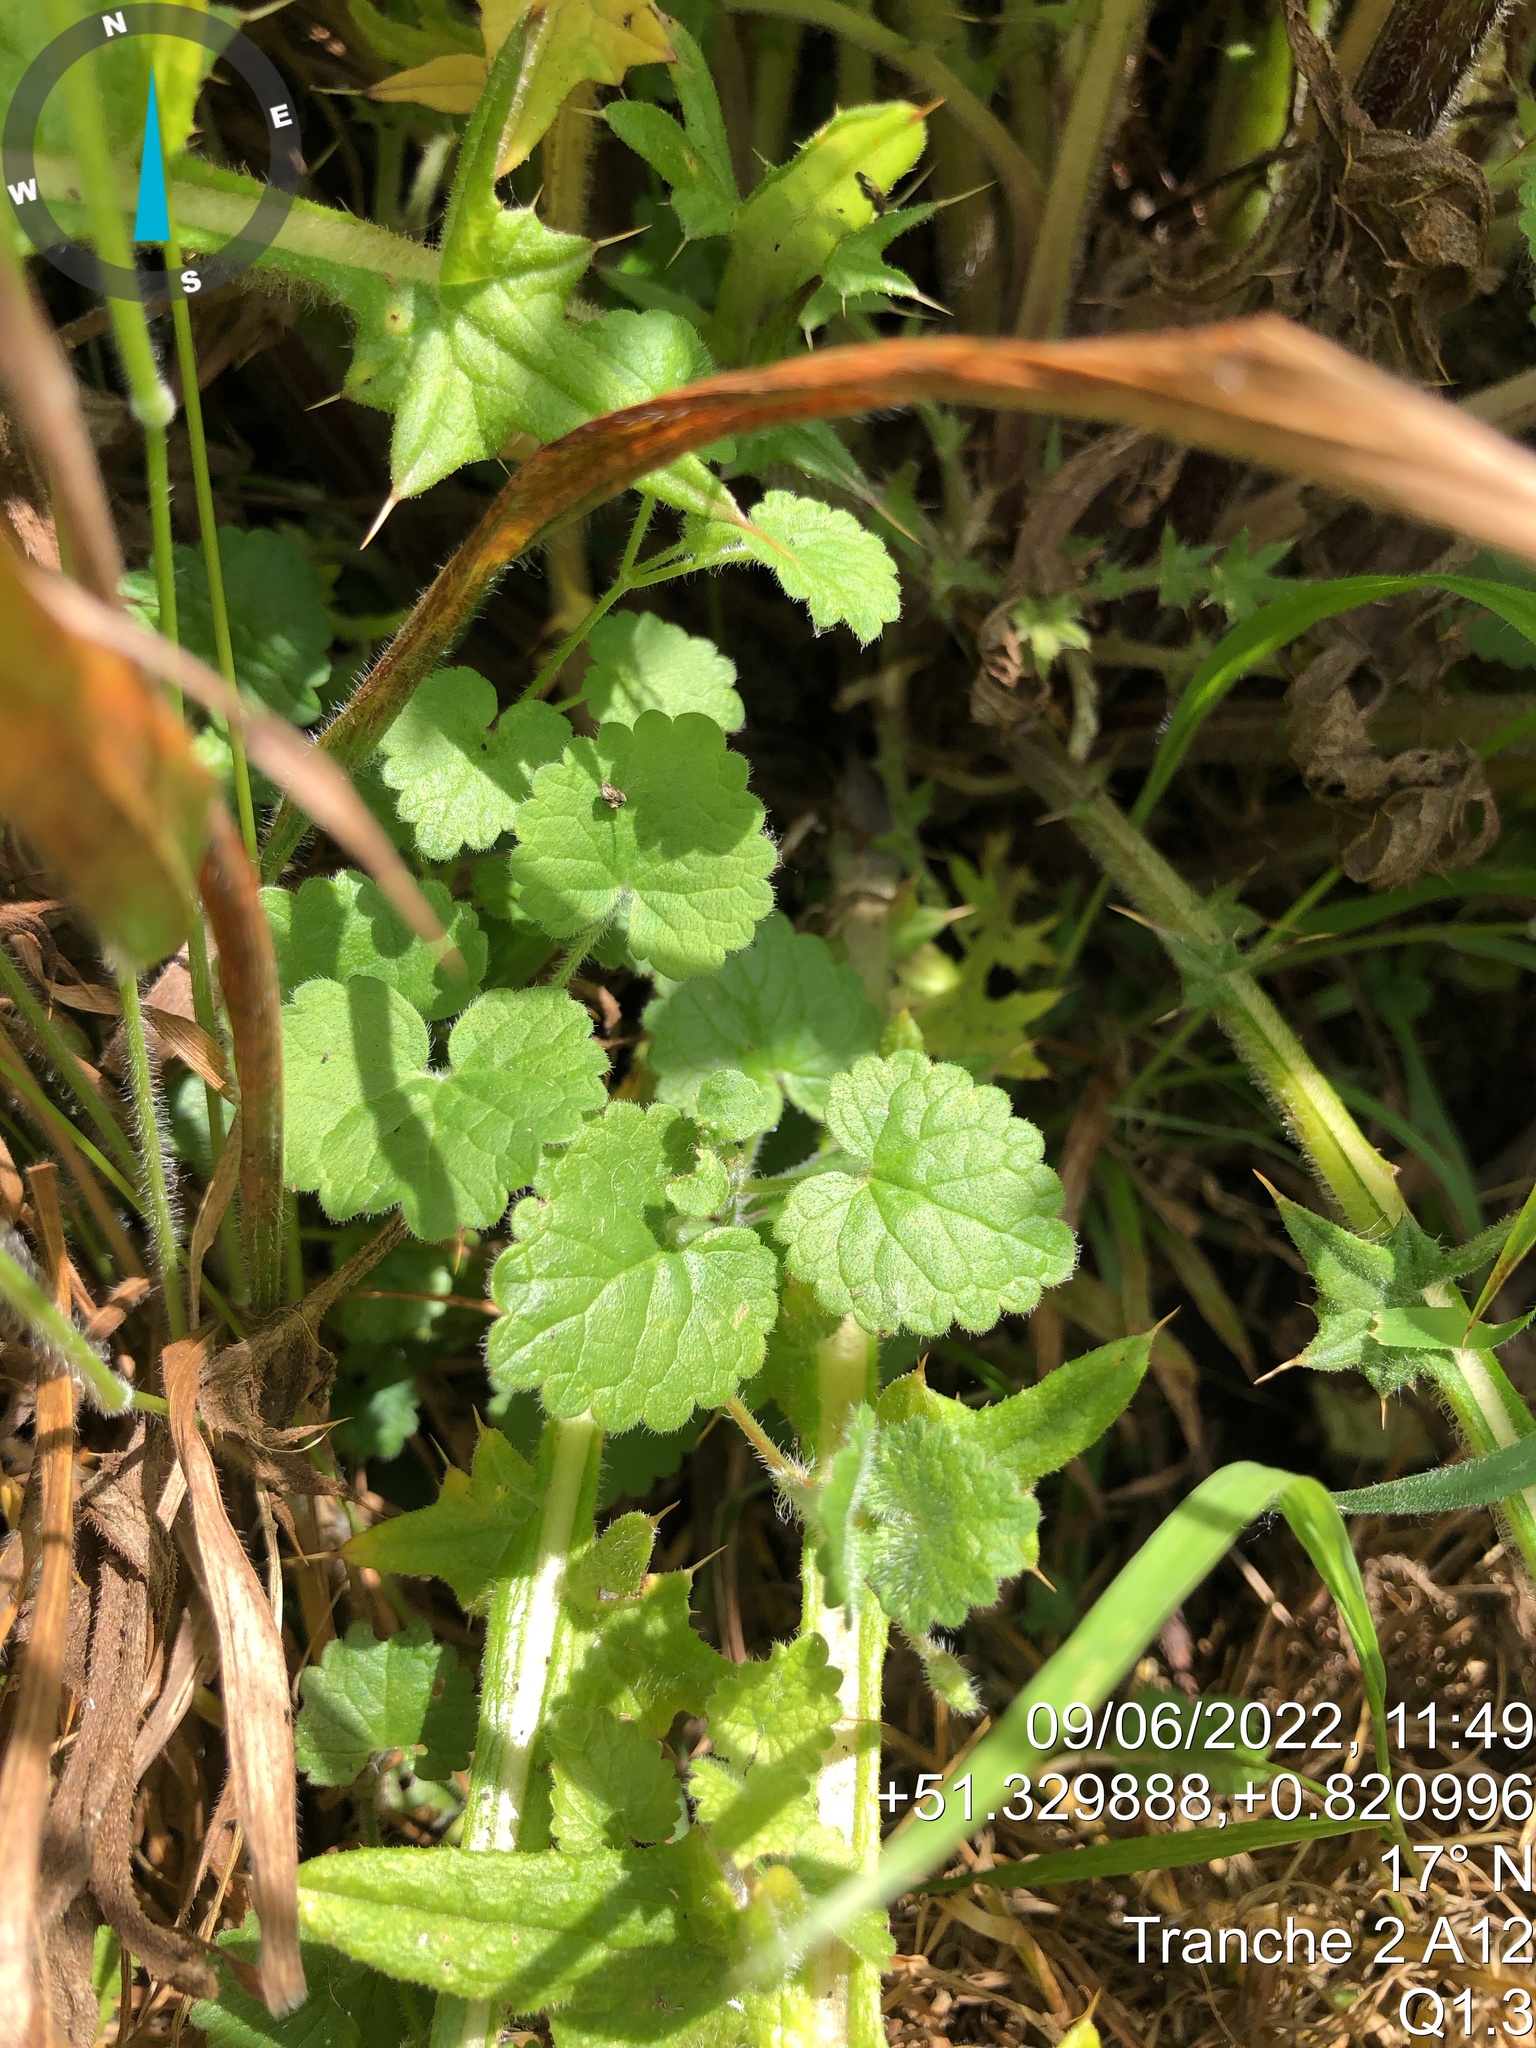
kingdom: Plantae
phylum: Tracheophyta
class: Magnoliopsida
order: Lamiales
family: Lamiaceae
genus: Glechoma
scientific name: Glechoma hederacea
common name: Ground ivy
